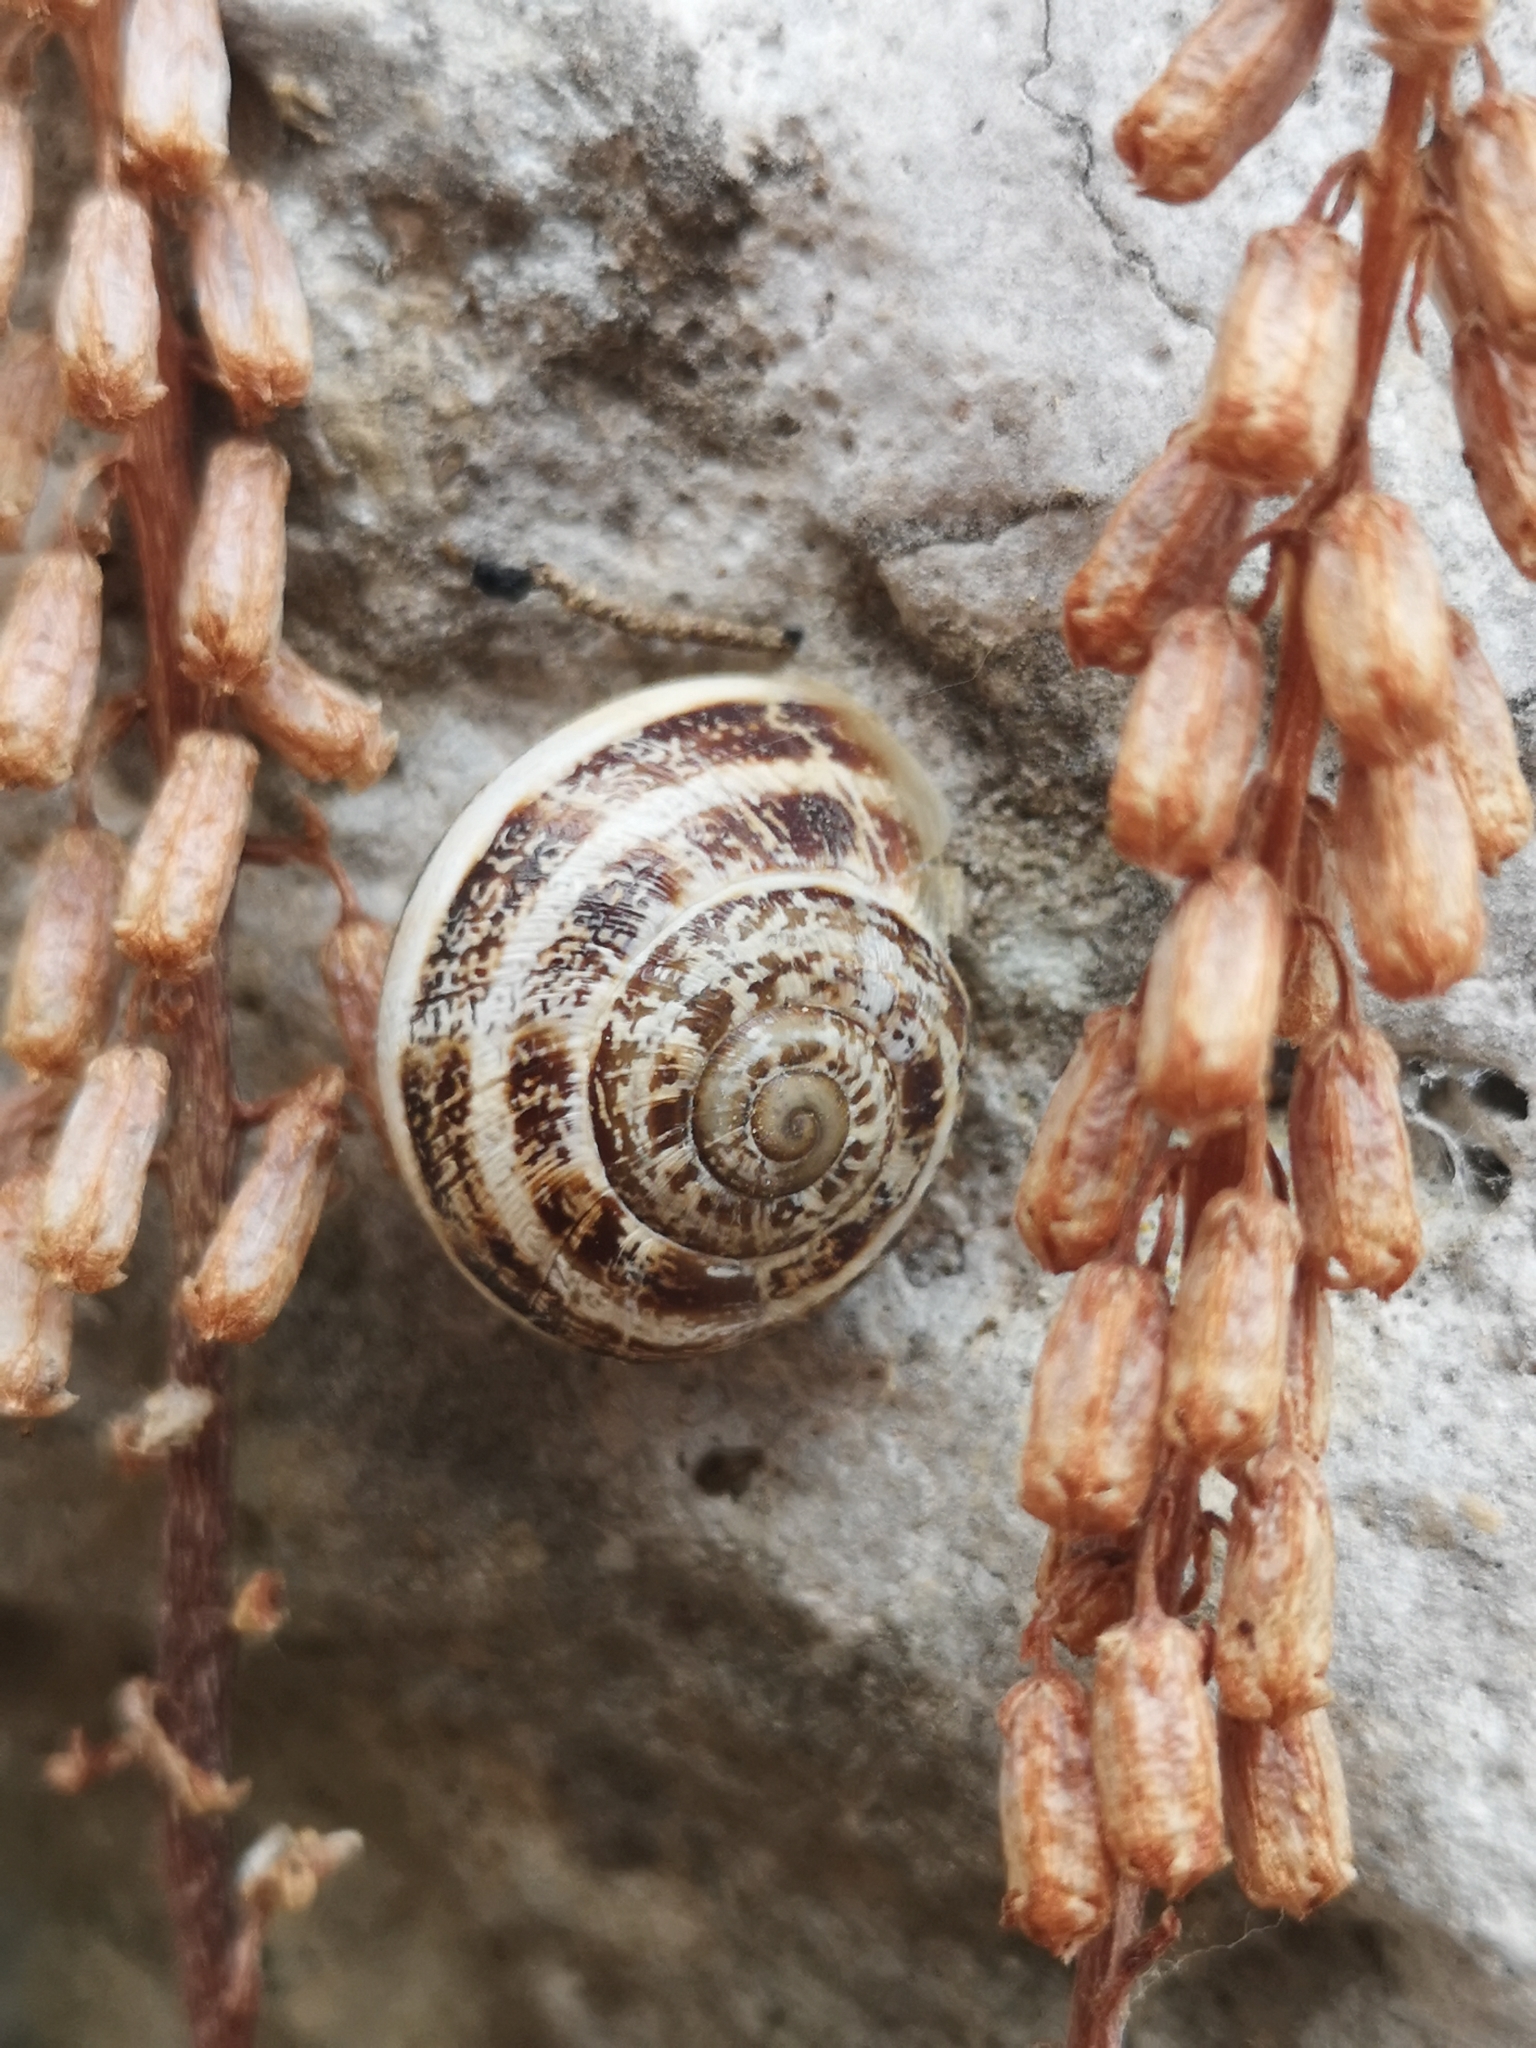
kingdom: Animalia
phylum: Mollusca
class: Gastropoda
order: Stylommatophora
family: Helicidae
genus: Eobania
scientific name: Eobania vermiculata
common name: Chocolateband snail
